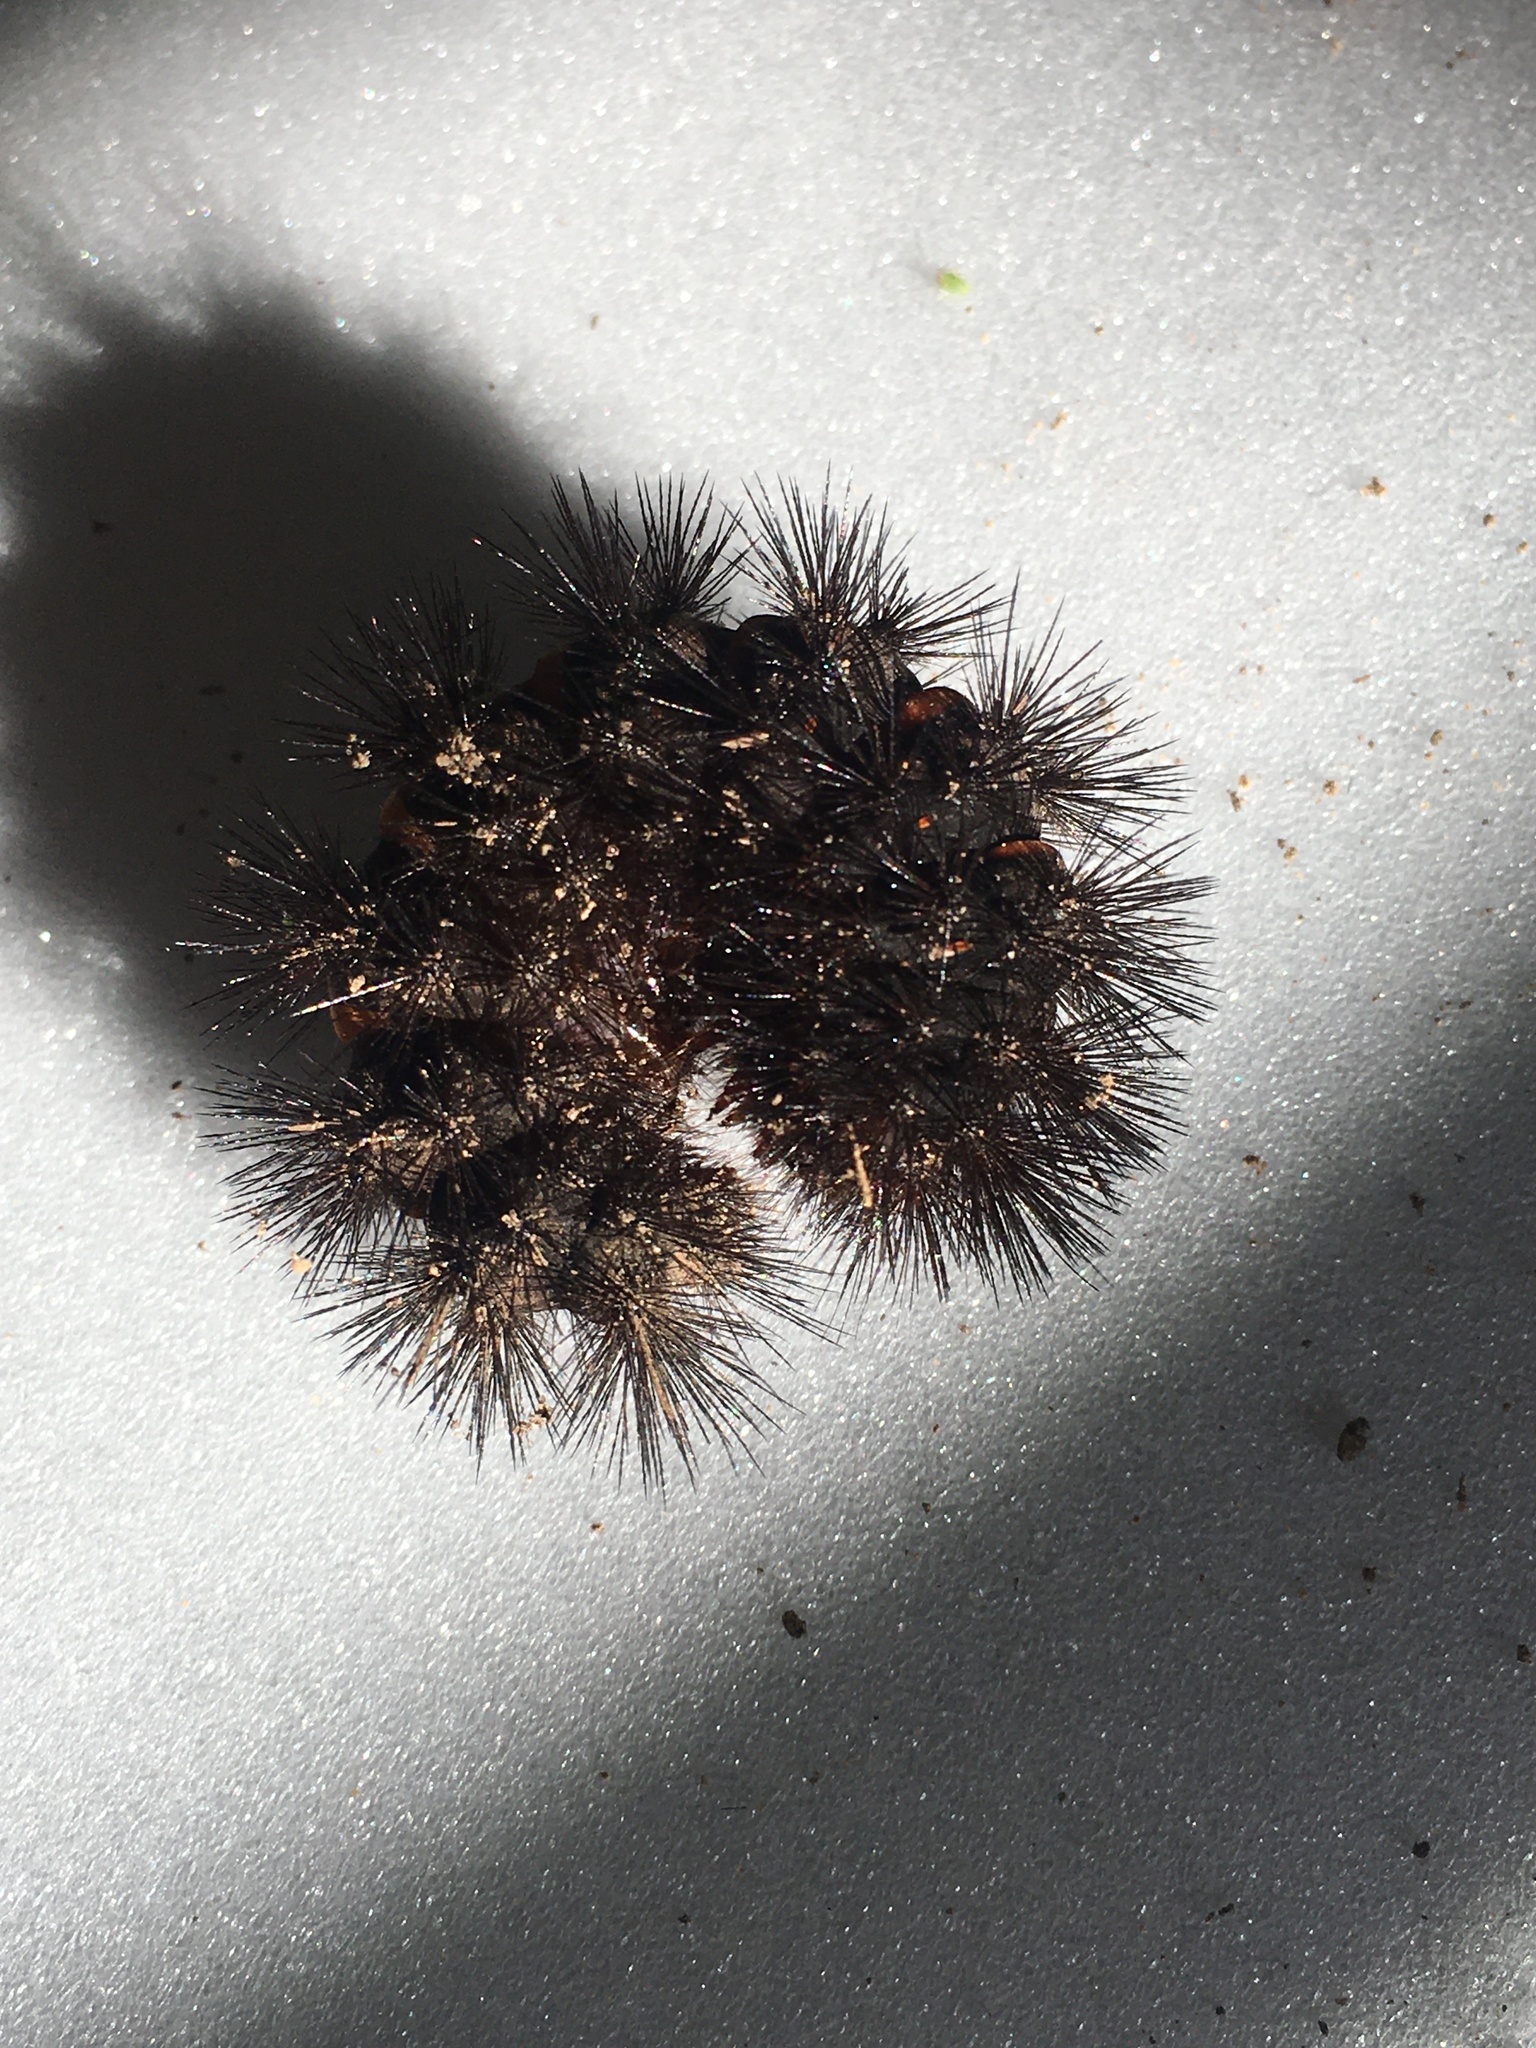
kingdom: Animalia
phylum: Arthropoda
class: Insecta
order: Lepidoptera
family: Erebidae
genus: Hypercompe
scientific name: Hypercompe scribonia
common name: Giant leopard moth
